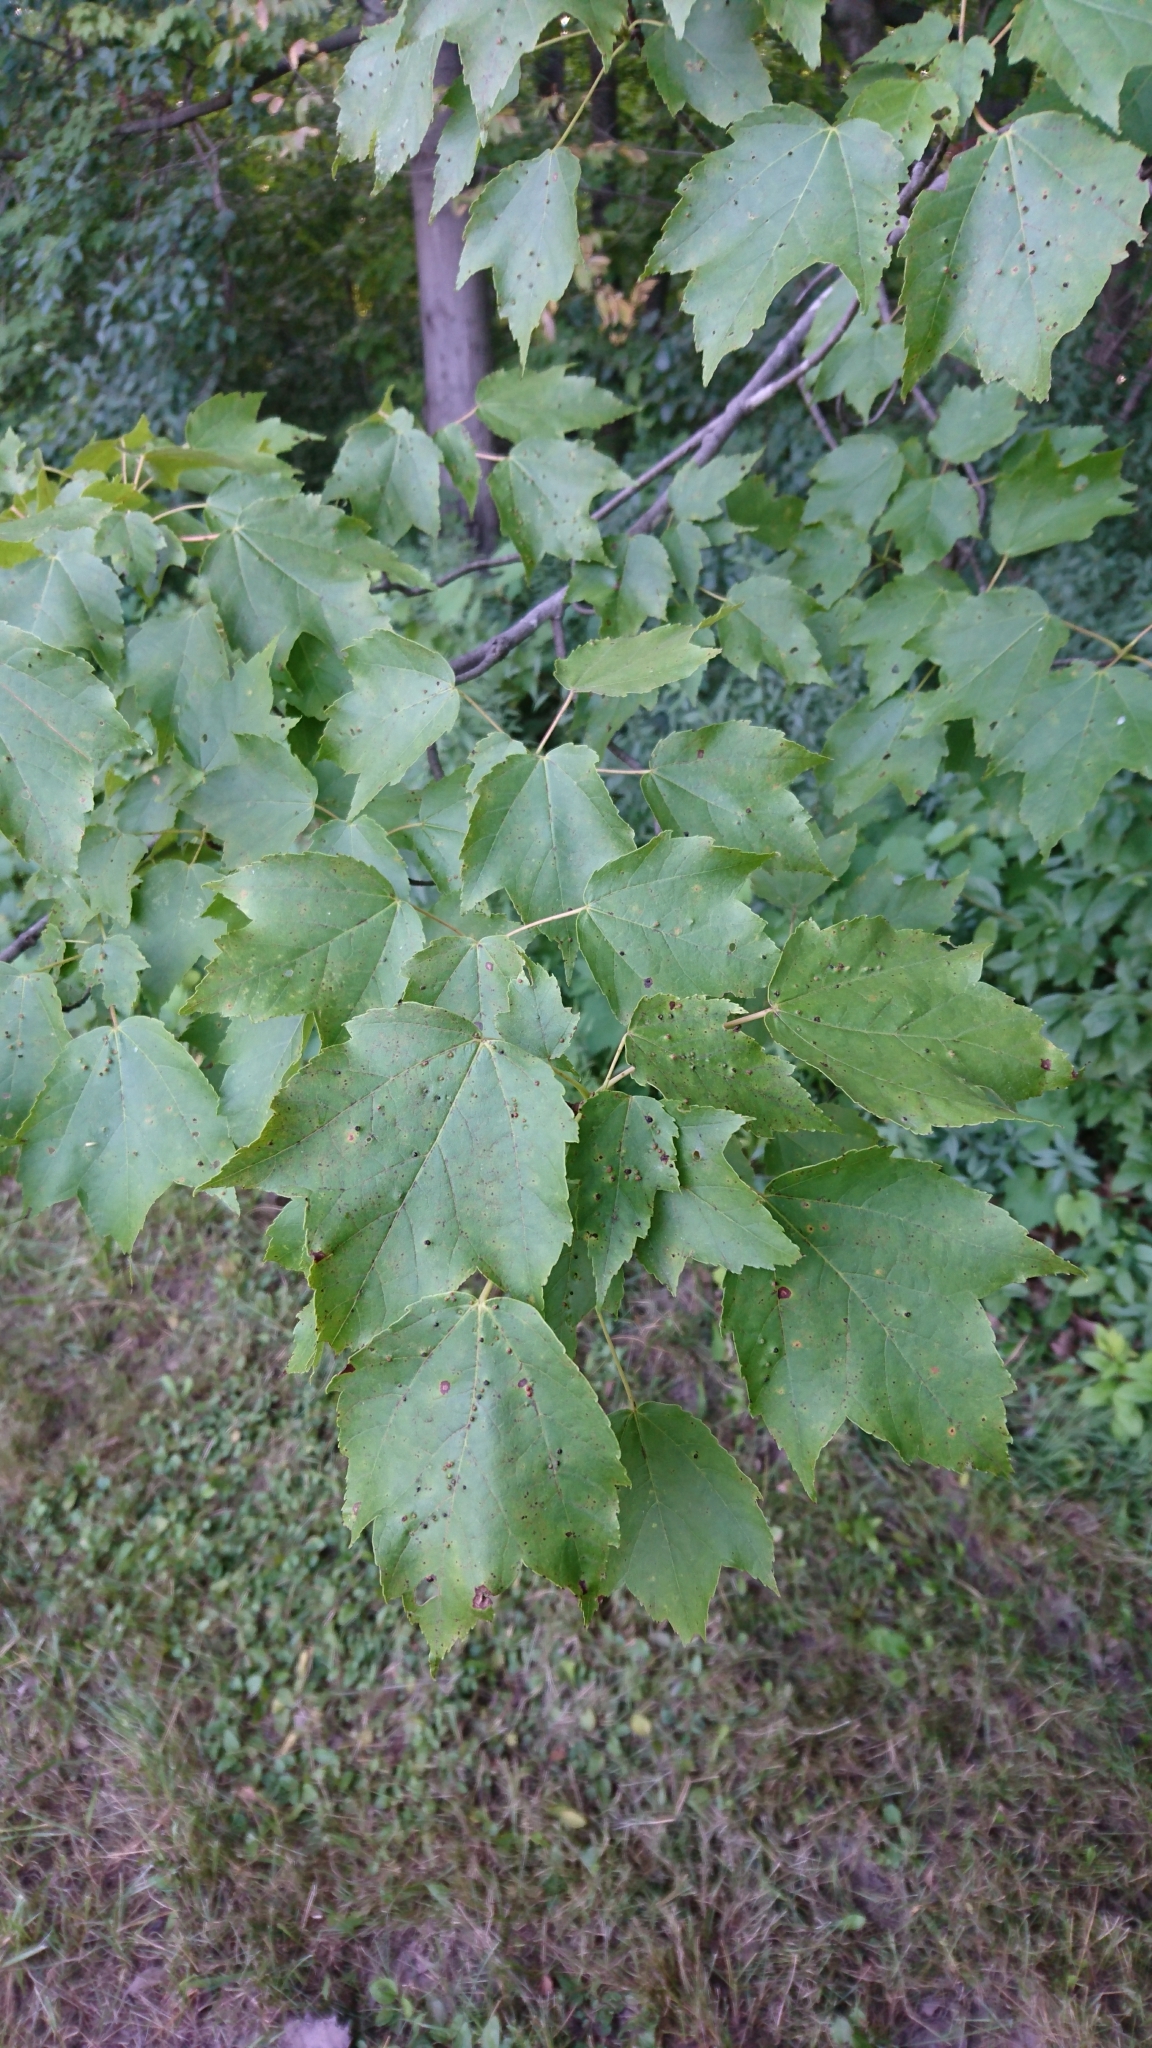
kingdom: Plantae
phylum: Tracheophyta
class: Magnoliopsida
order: Sapindales
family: Sapindaceae
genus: Acer
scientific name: Acer rubrum
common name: Red maple
